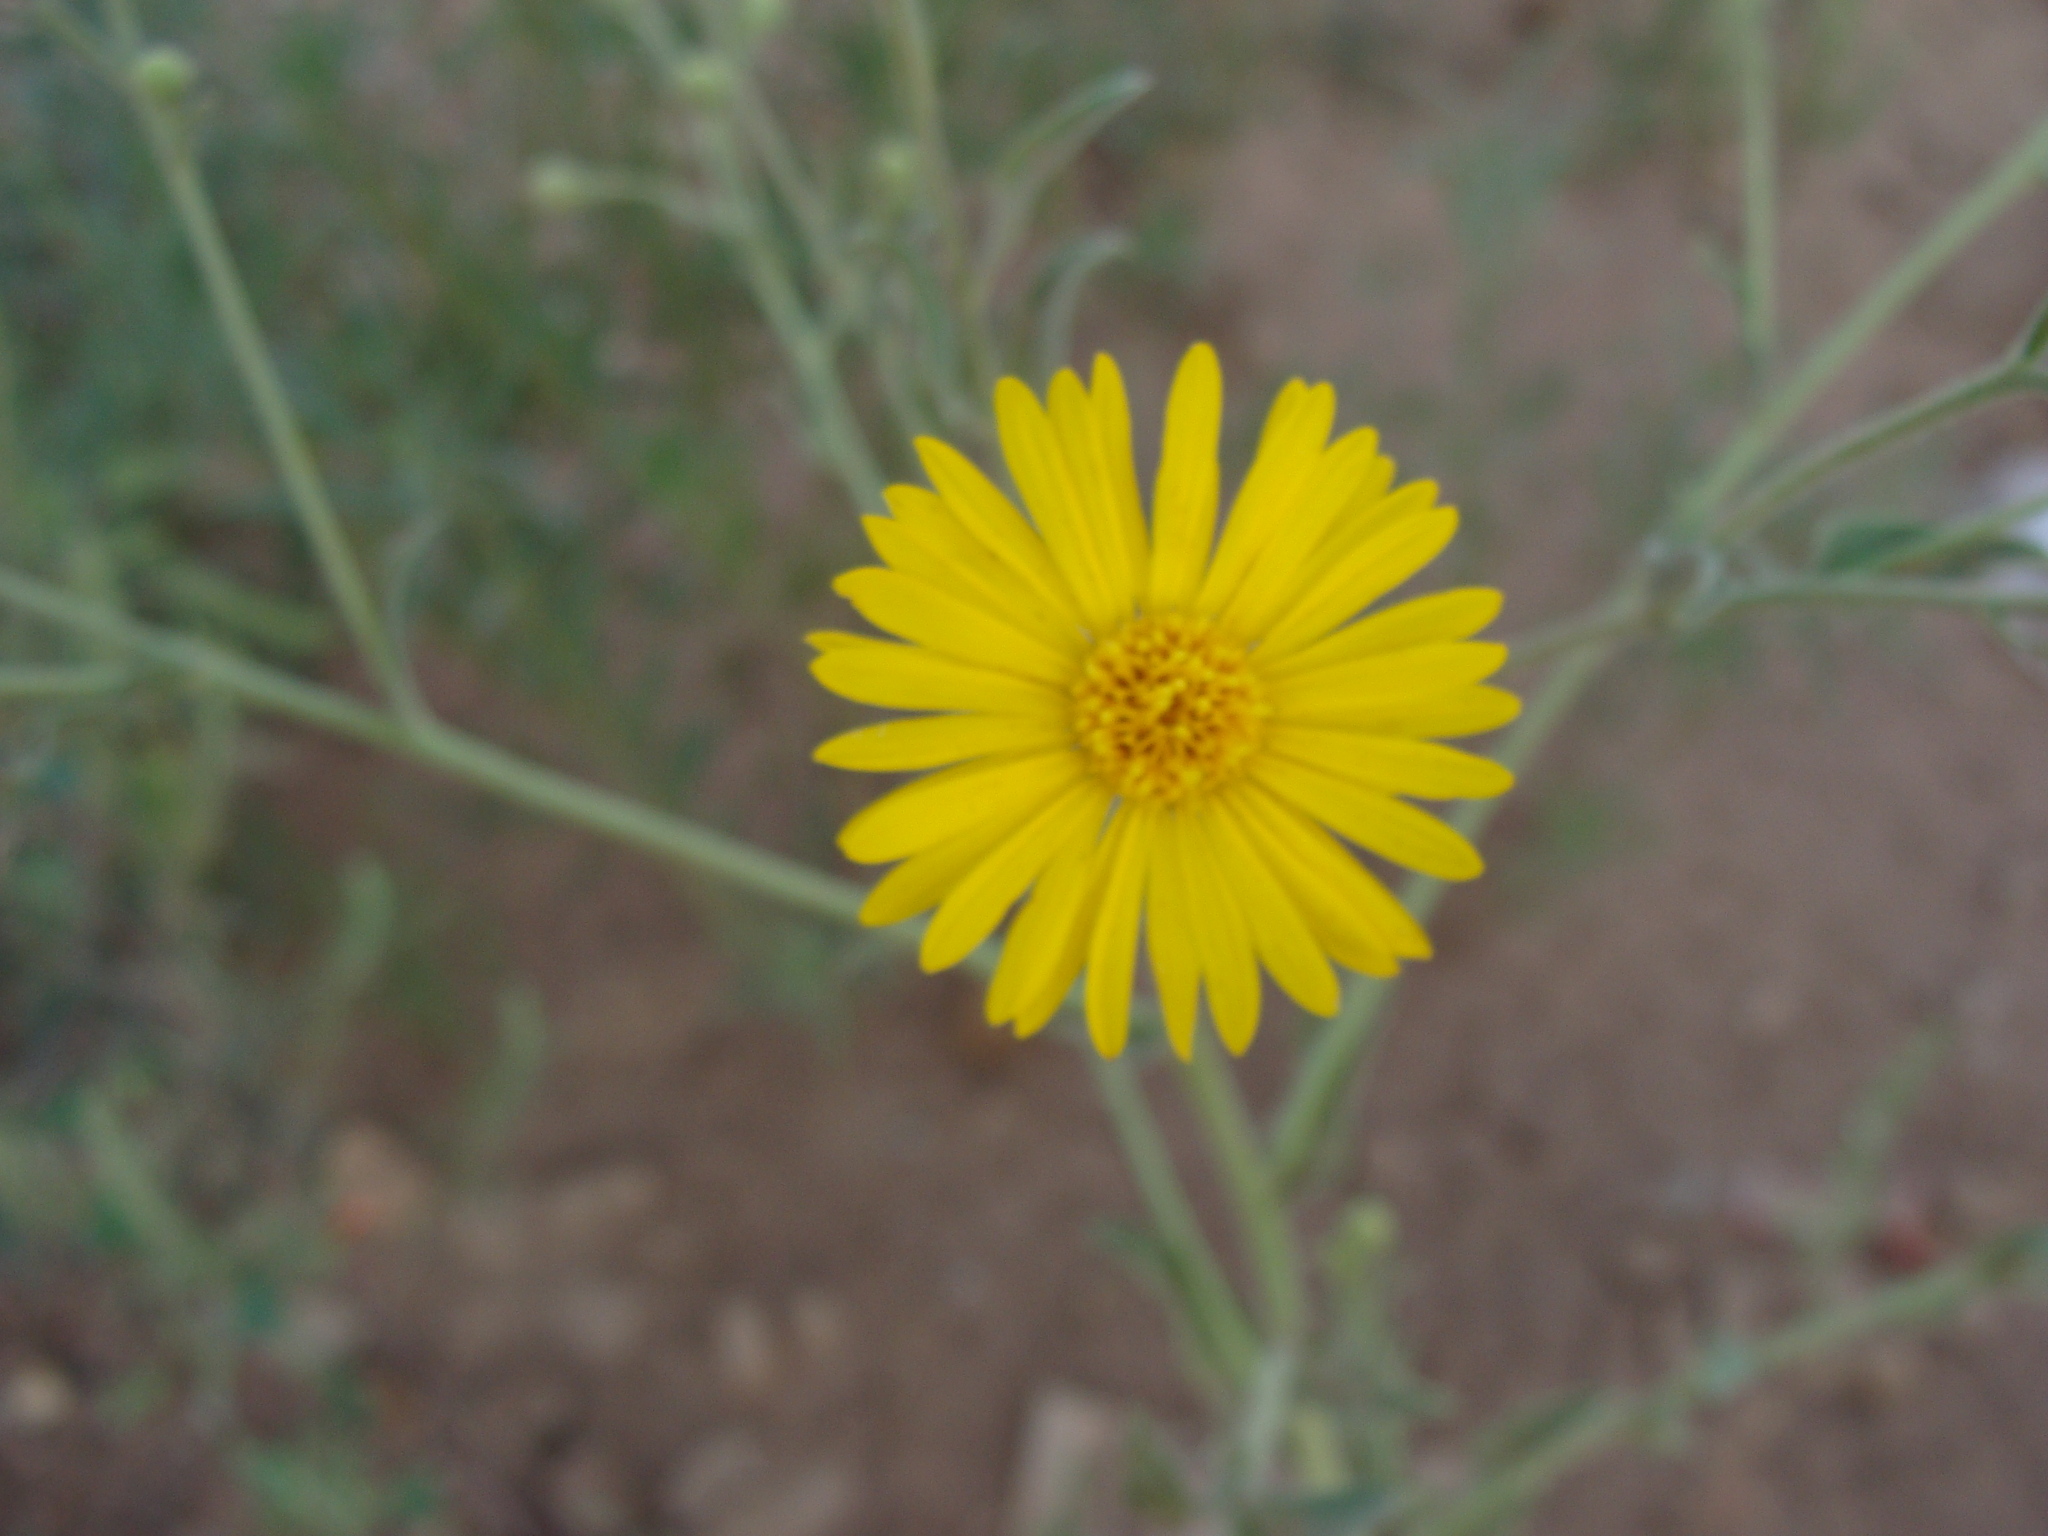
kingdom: Plantae
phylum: Tracheophyta
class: Magnoliopsida
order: Asterales
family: Asteraceae
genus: Xanthisma
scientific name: Xanthisma gracile
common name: Slender goldenweed
